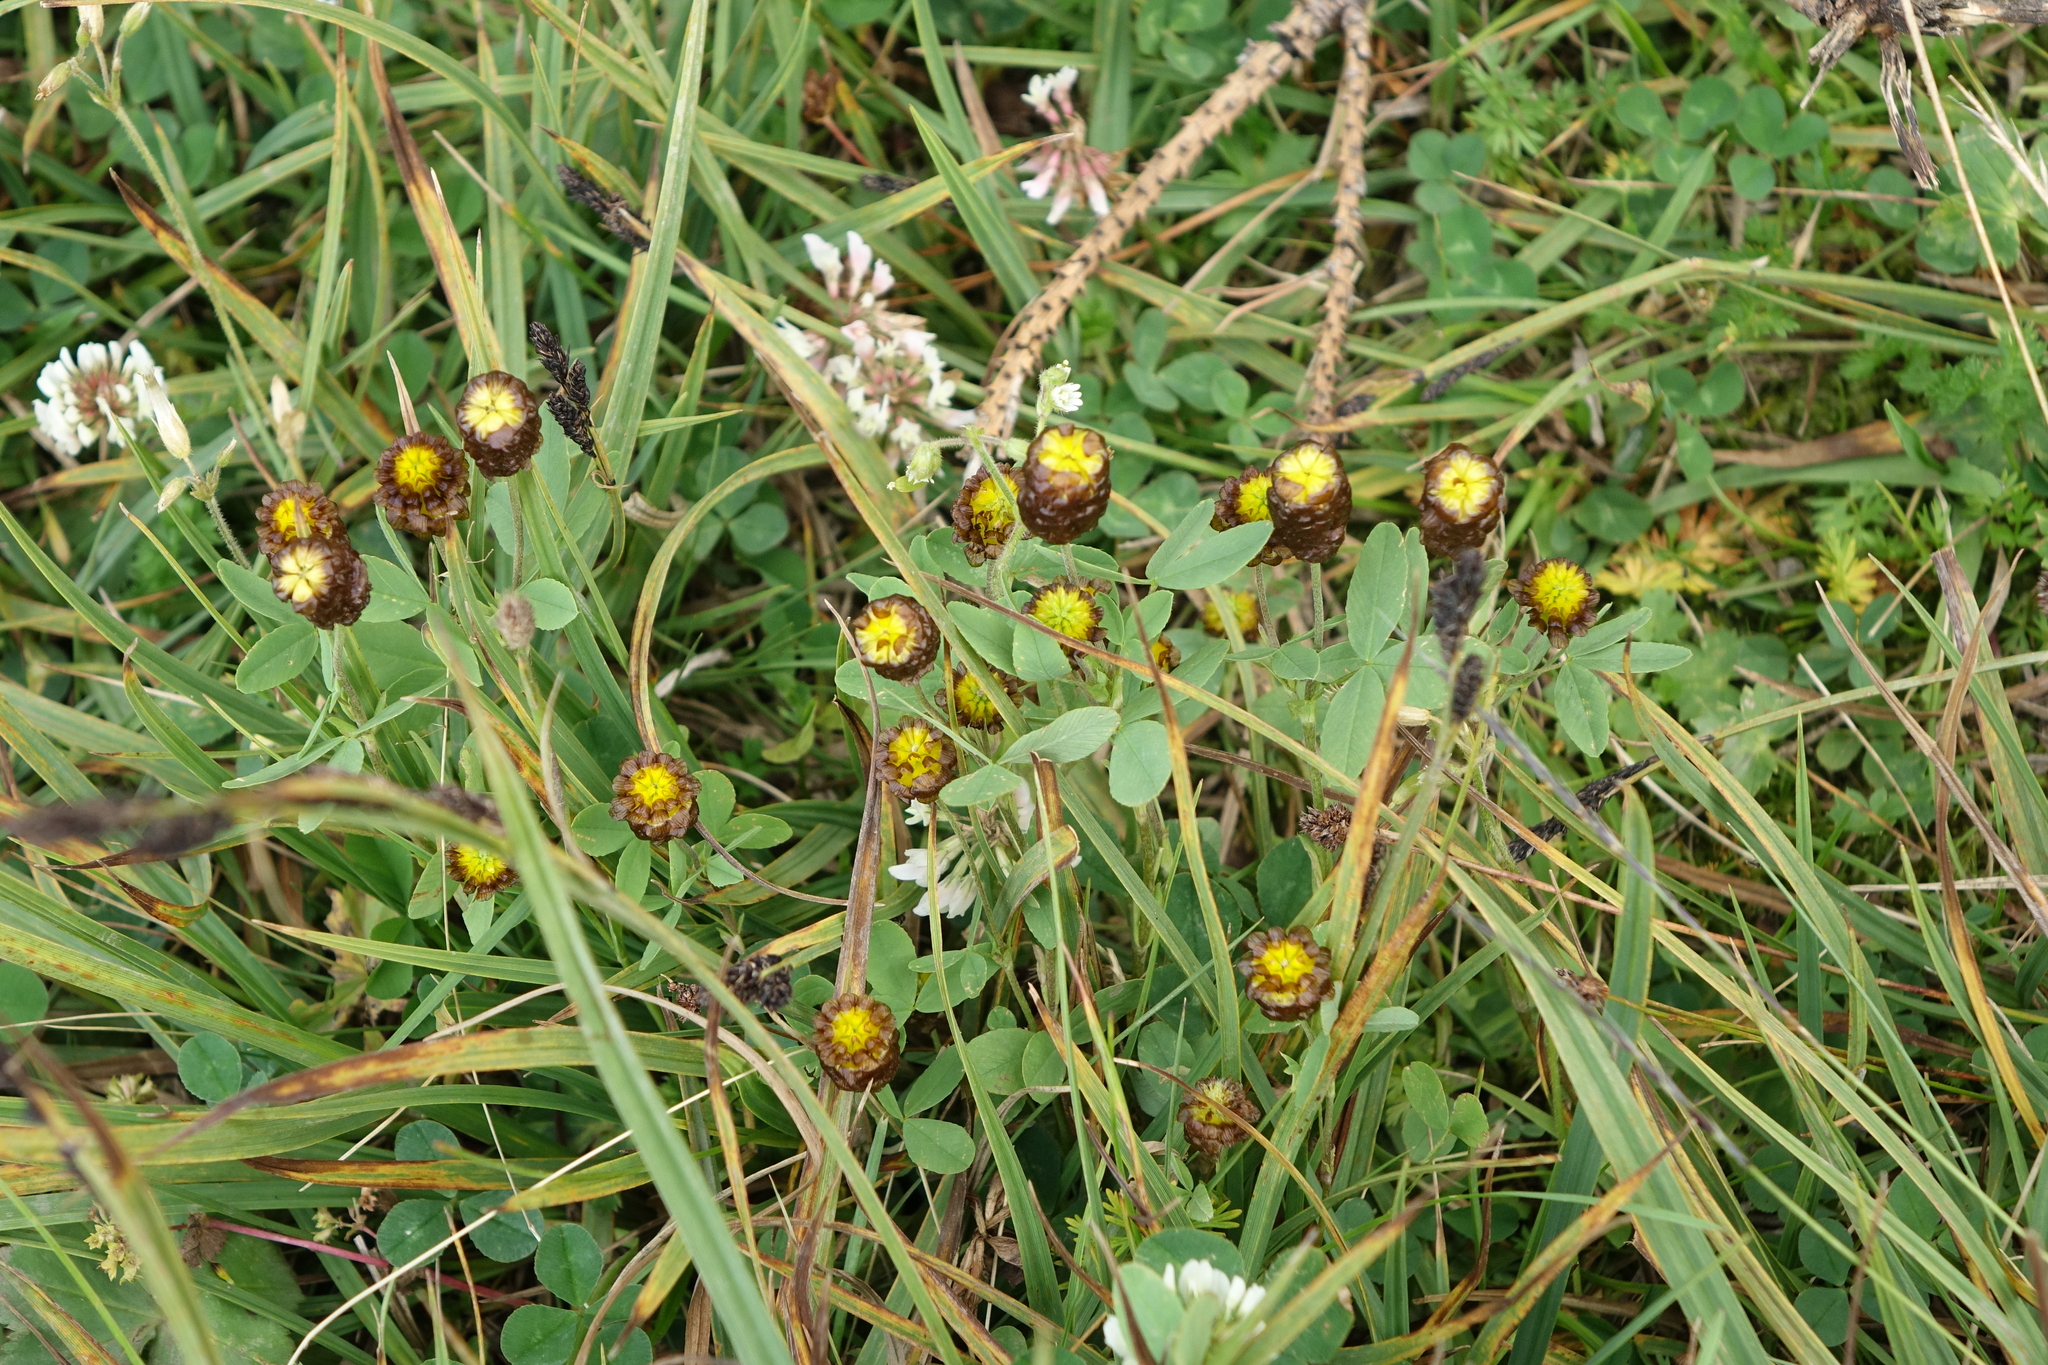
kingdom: Plantae
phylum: Tracheophyta
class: Magnoliopsida
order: Fabales
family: Fabaceae
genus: Trifolium
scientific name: Trifolium spadiceum
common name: Brown moor clover
